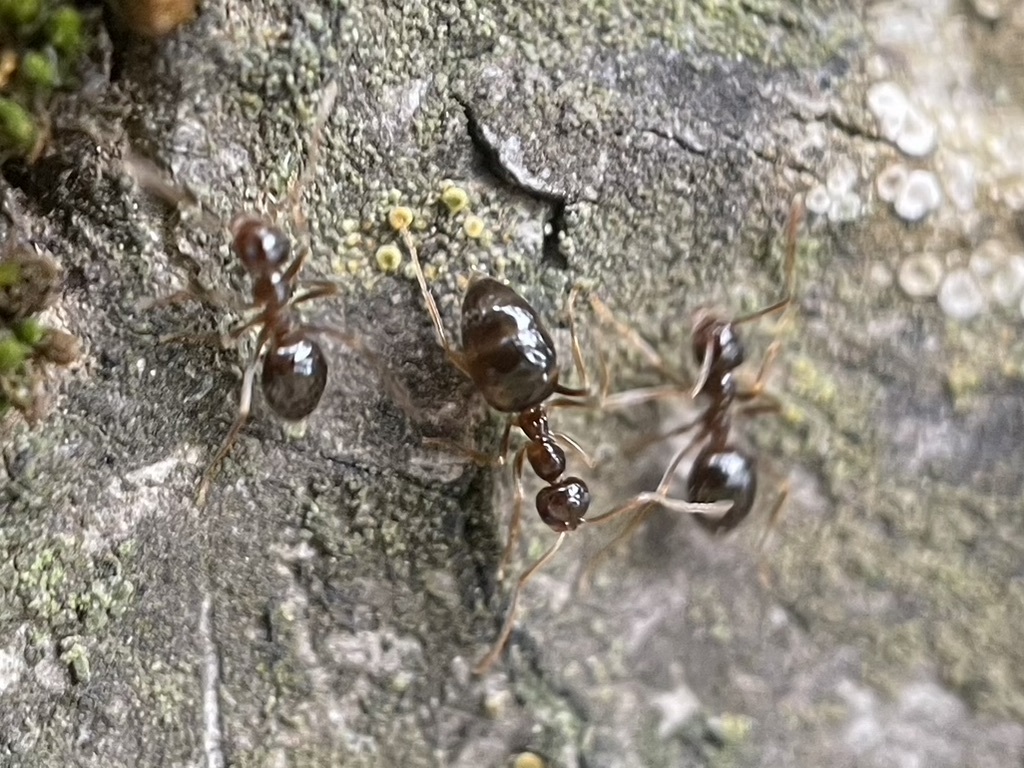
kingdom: Animalia
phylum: Arthropoda
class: Insecta
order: Hymenoptera
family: Formicidae
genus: Prenolepis
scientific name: Prenolepis imparis
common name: Small honey ant
